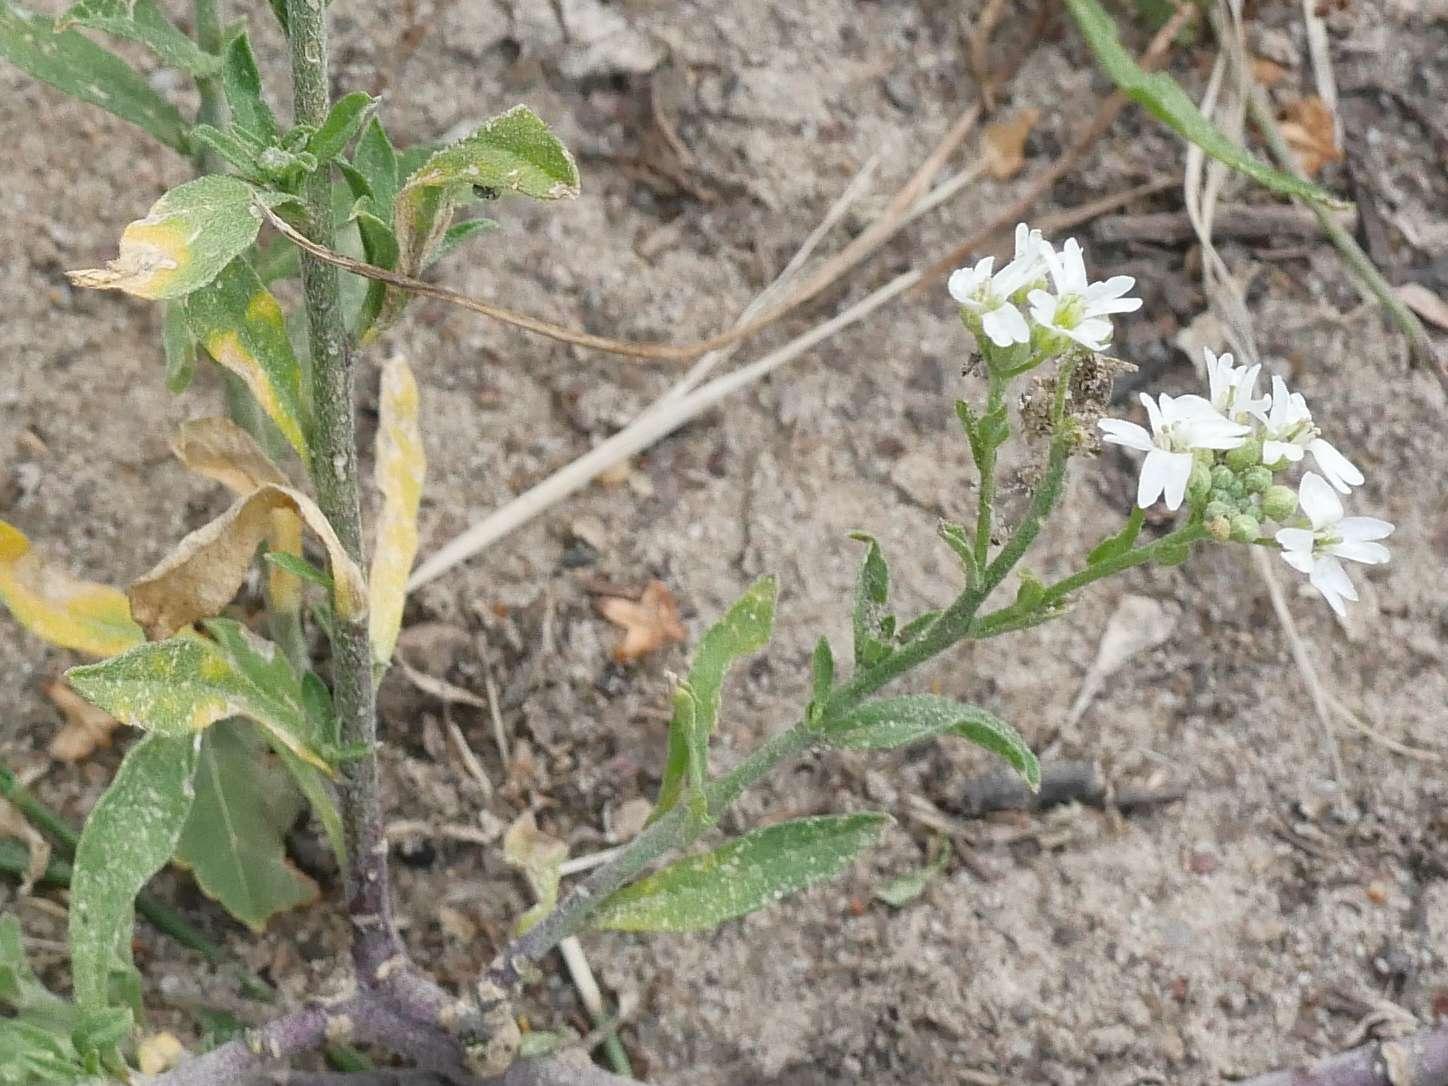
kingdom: Plantae
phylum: Tracheophyta
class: Magnoliopsida
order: Brassicales
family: Brassicaceae
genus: Berteroa
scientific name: Berteroa incana
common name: Hoary alison
